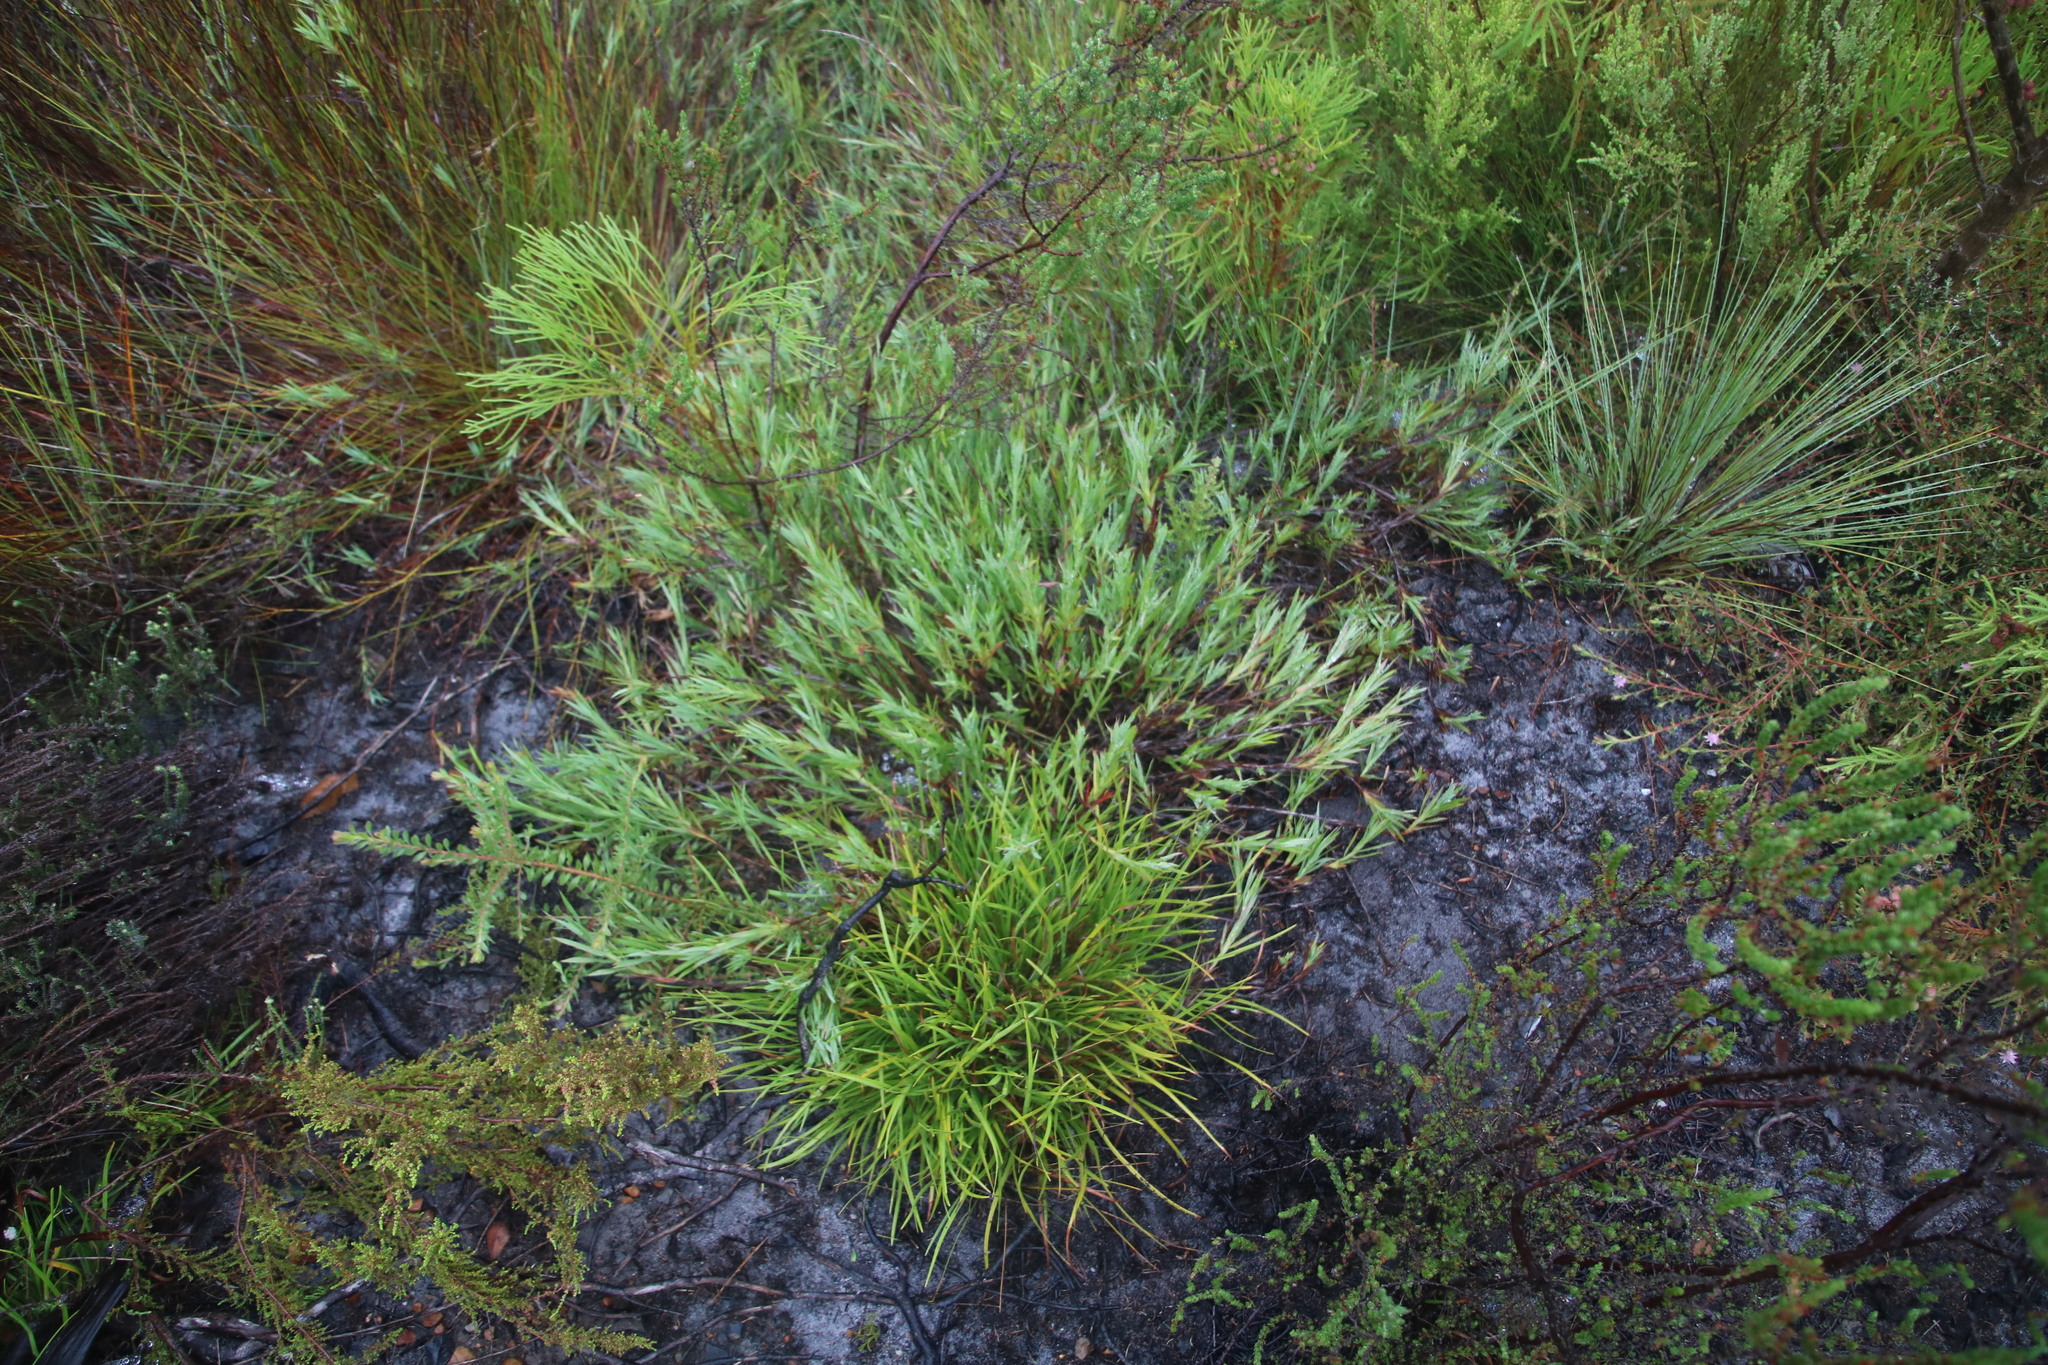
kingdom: Plantae
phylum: Tracheophyta
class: Magnoliopsida
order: Rosales
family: Rosaceae
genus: Cliffortia
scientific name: Cliffortia graminea
